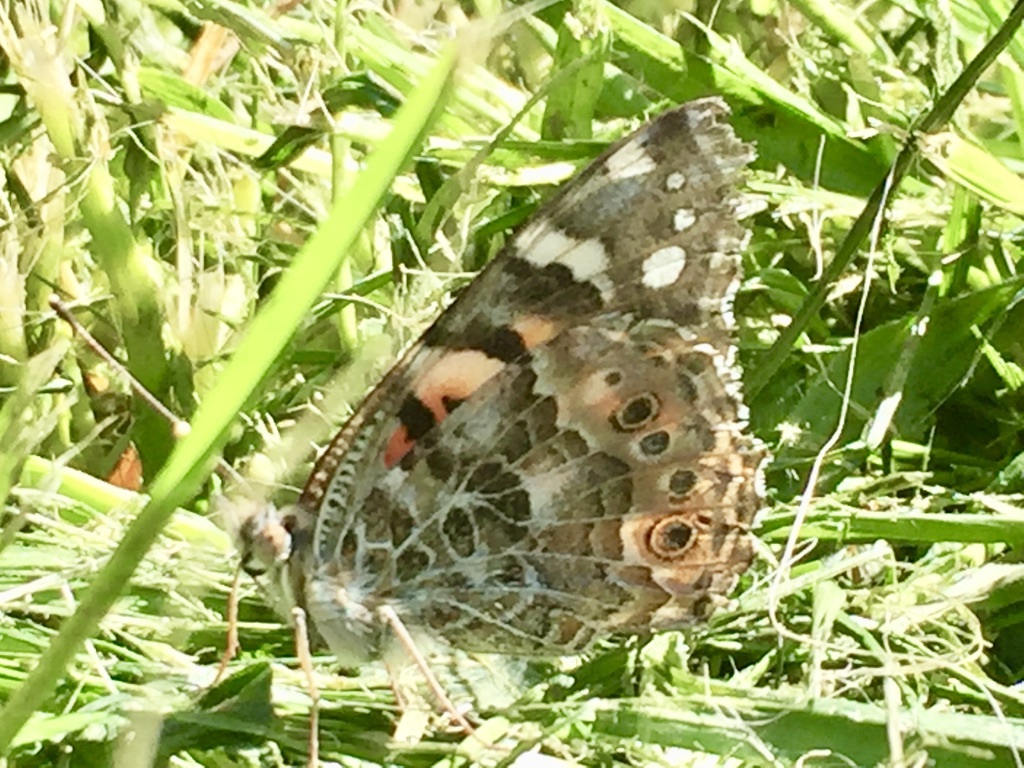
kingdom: Animalia
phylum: Arthropoda
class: Insecta
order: Lepidoptera
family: Nymphalidae
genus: Vanessa
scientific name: Vanessa cardui
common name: Painted lady
